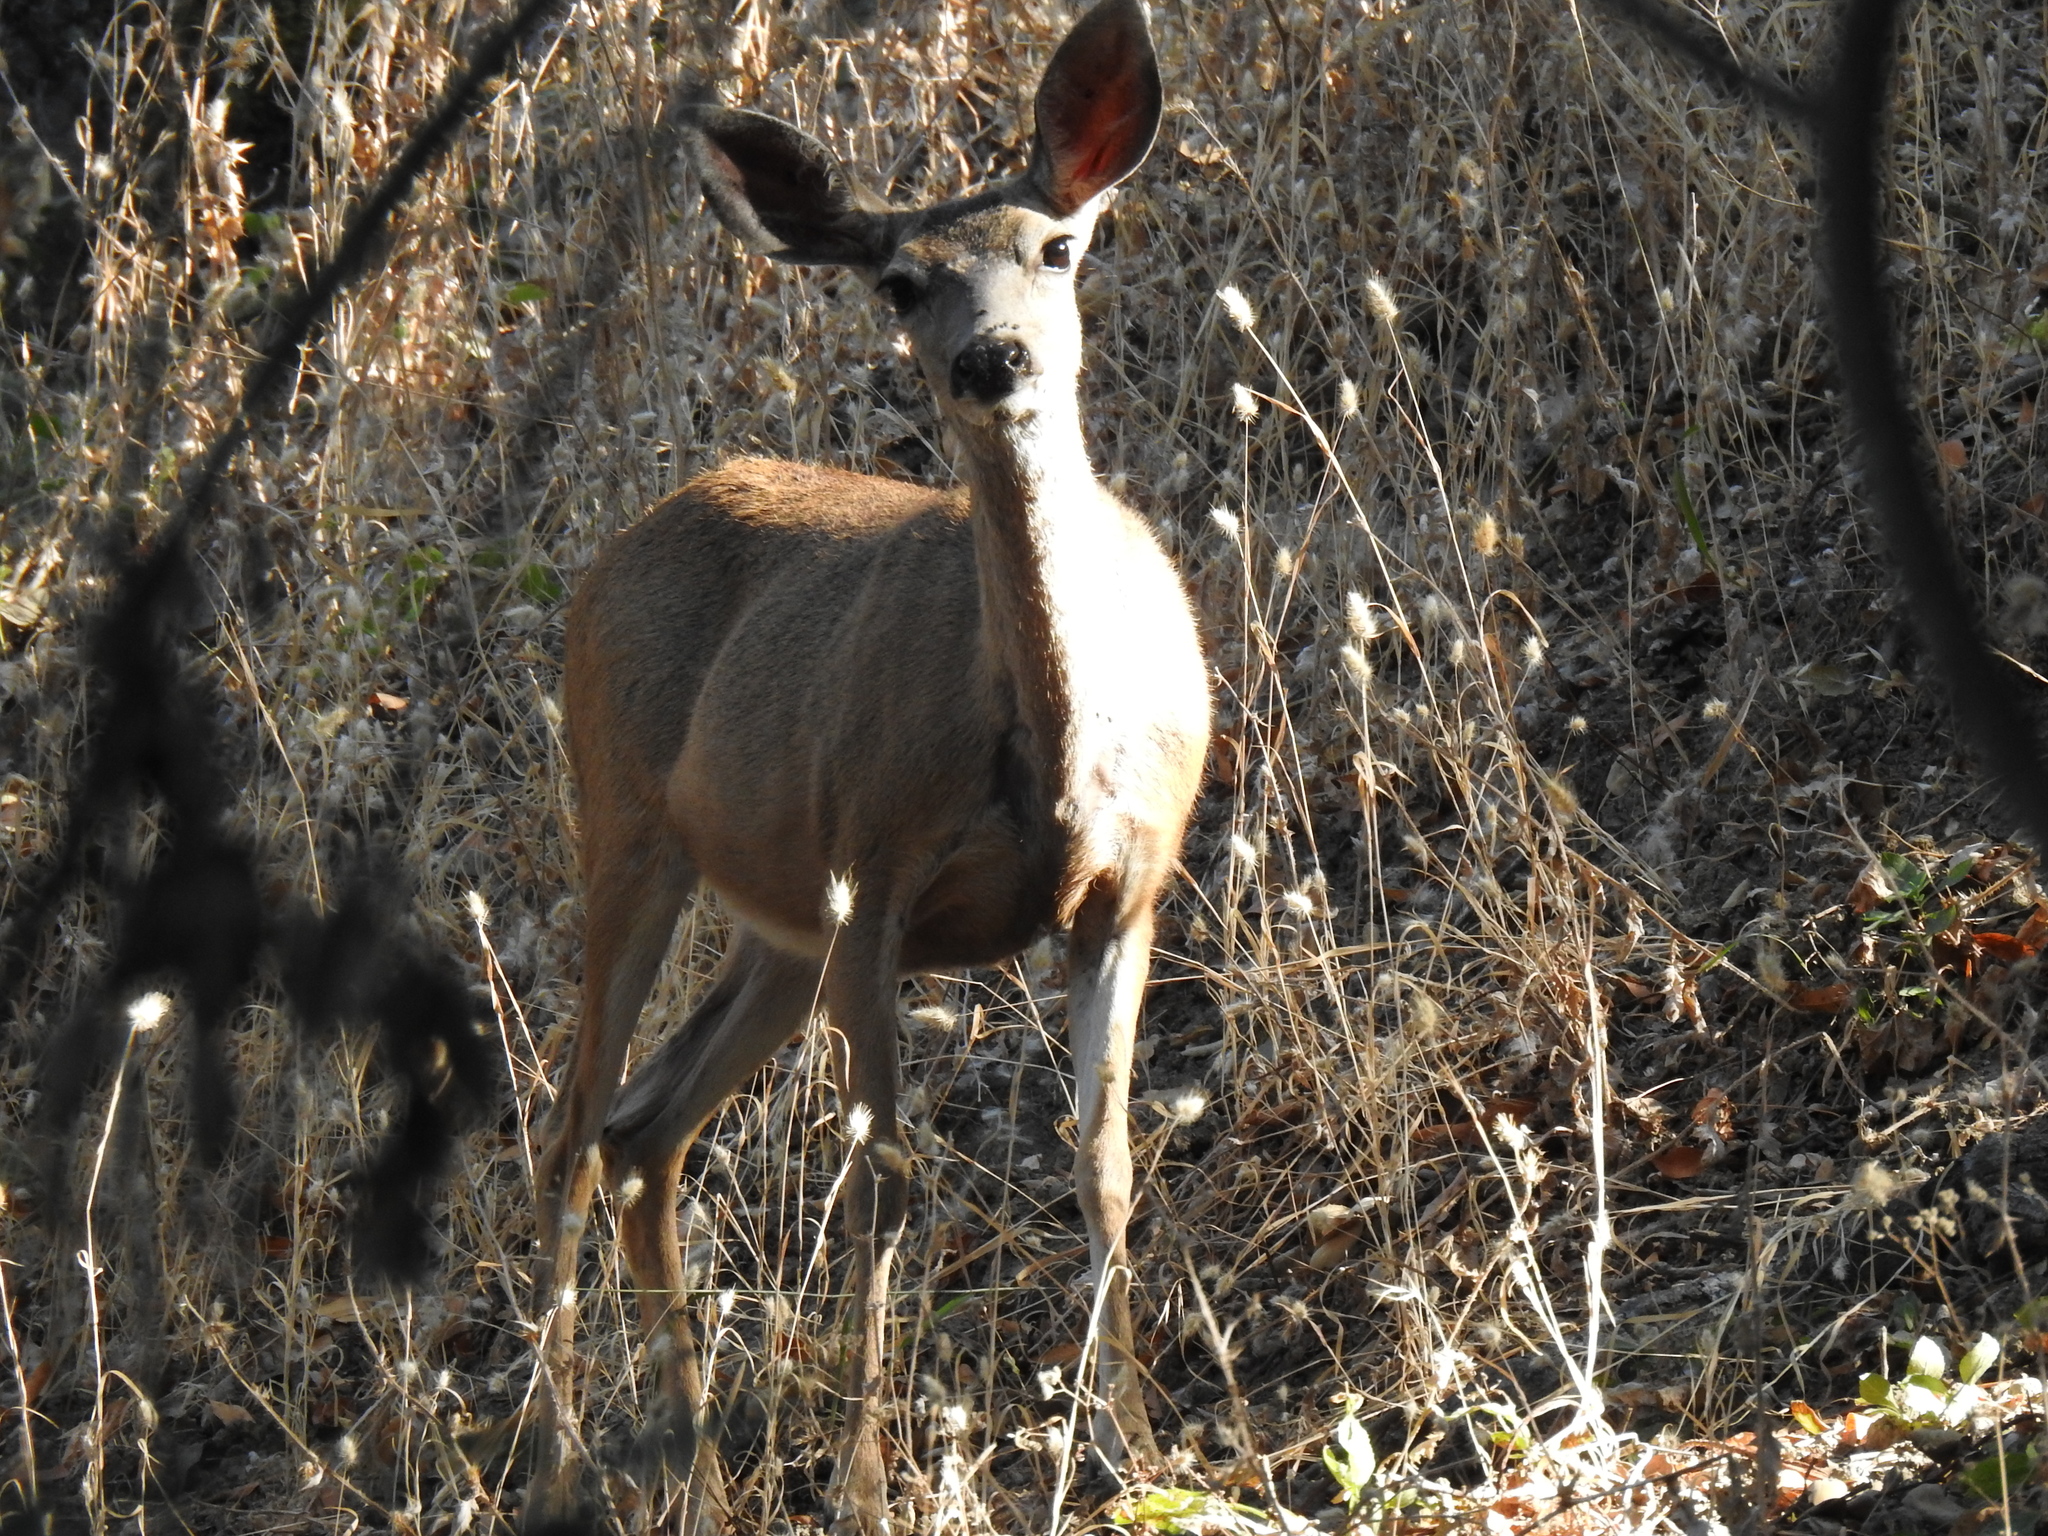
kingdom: Animalia
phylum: Chordata
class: Mammalia
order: Artiodactyla
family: Cervidae
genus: Odocoileus
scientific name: Odocoileus hemionus
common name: Mule deer
